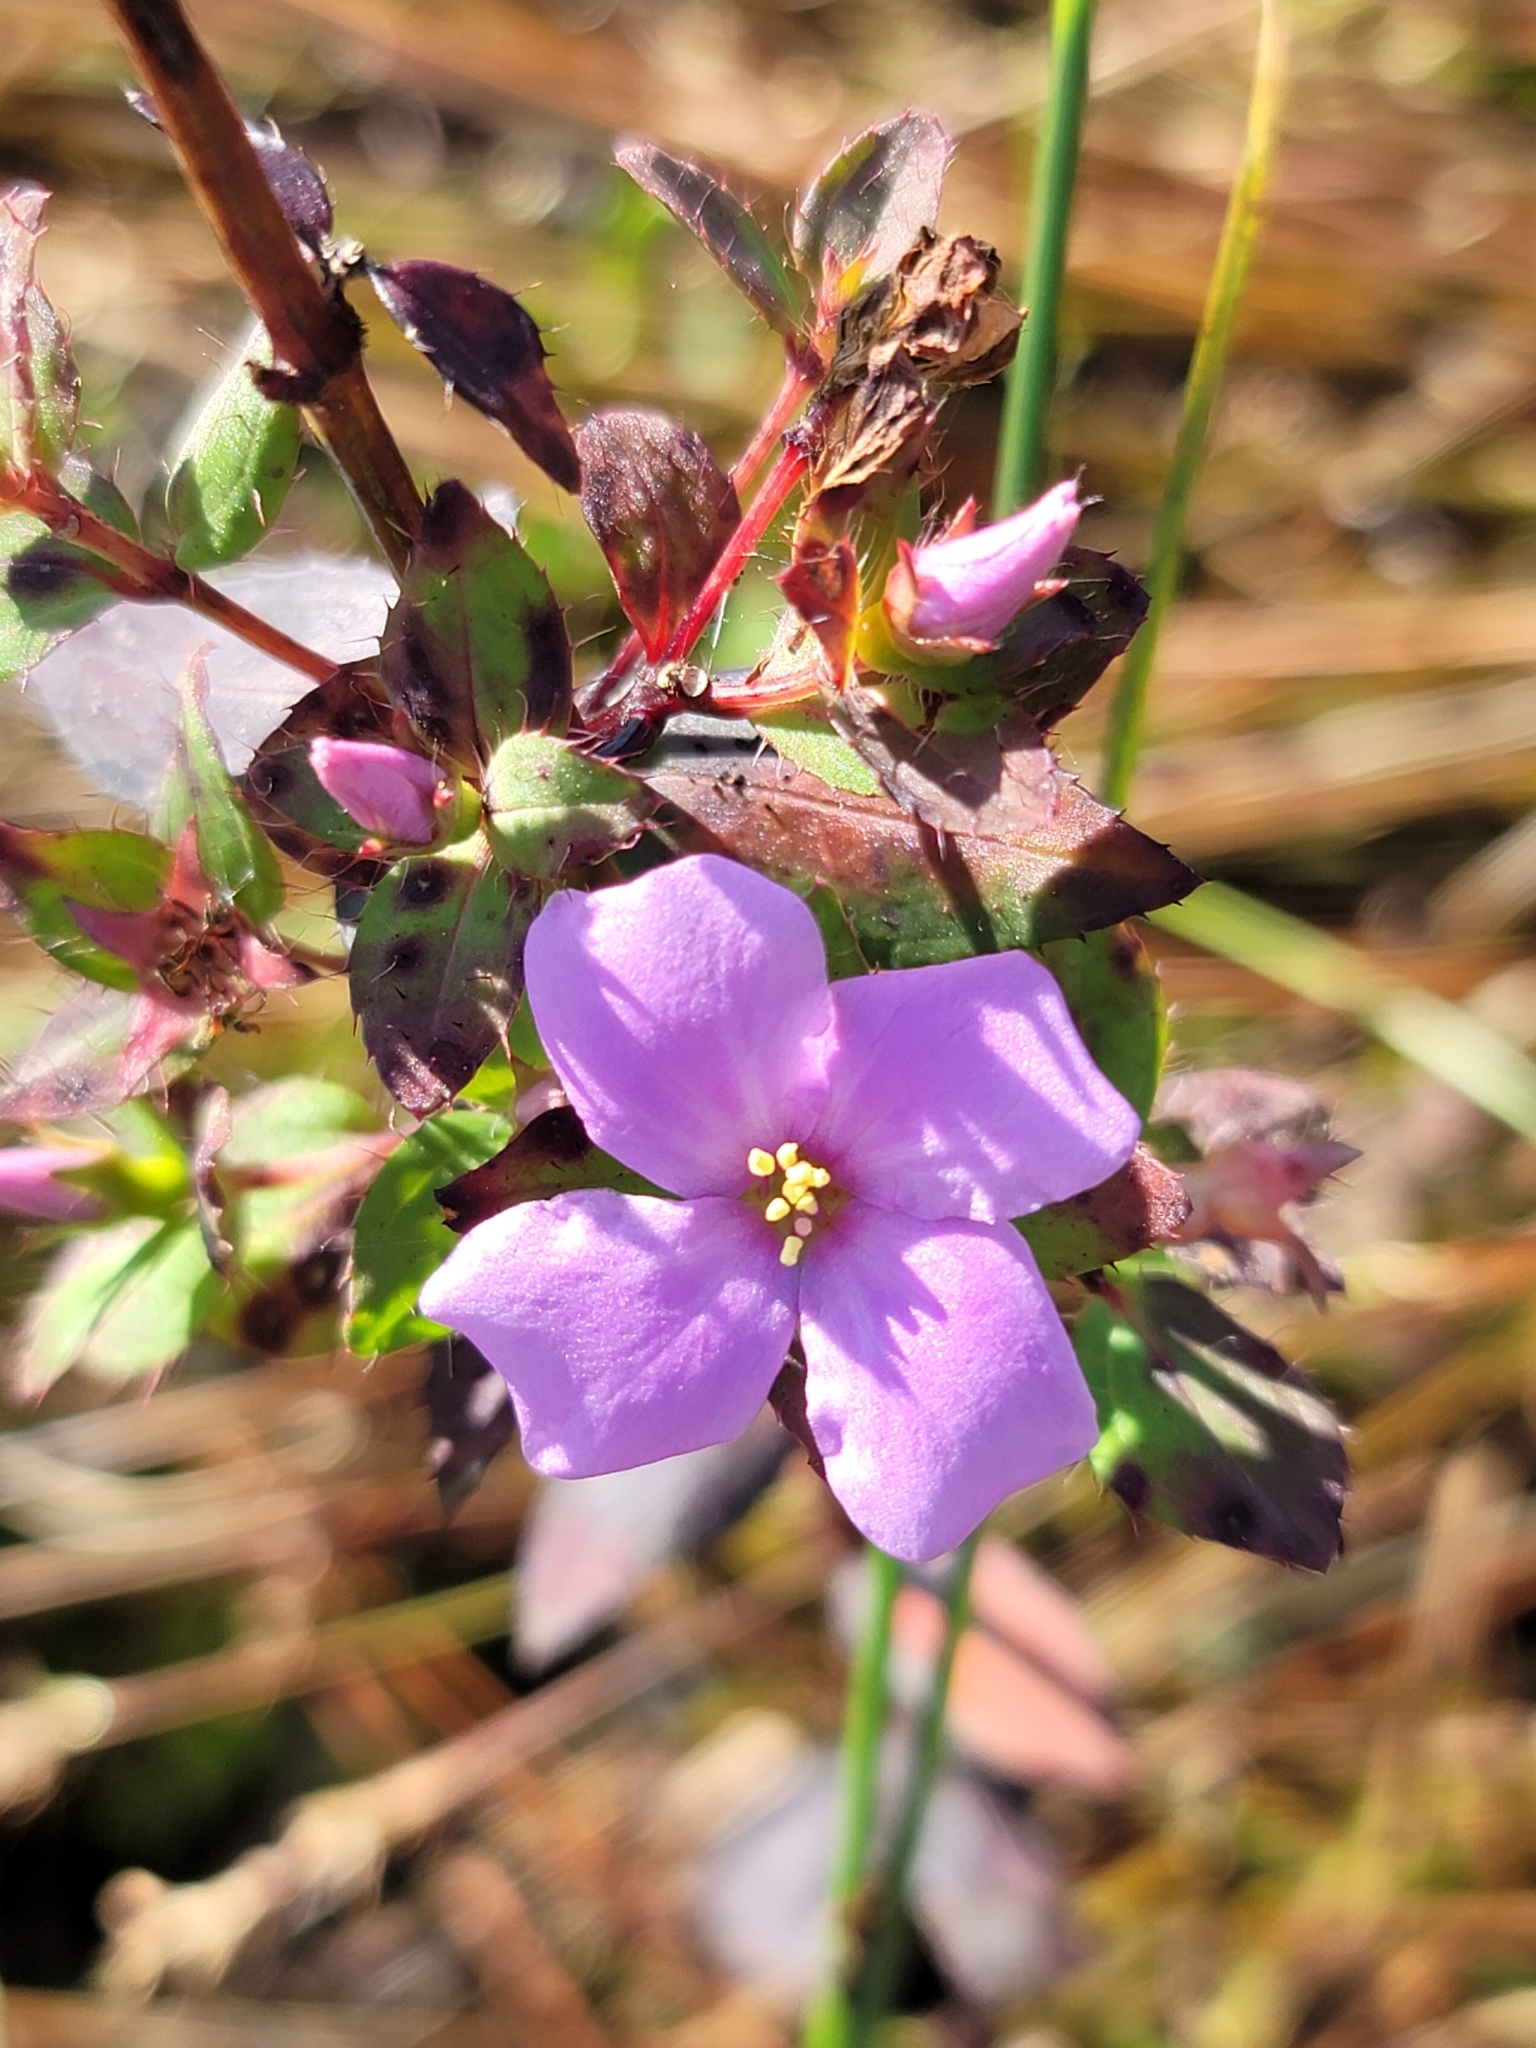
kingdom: Plantae
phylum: Tracheophyta
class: Magnoliopsida
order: Myrtales
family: Melastomataceae
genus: Rhexia
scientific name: Rhexia petiolata
